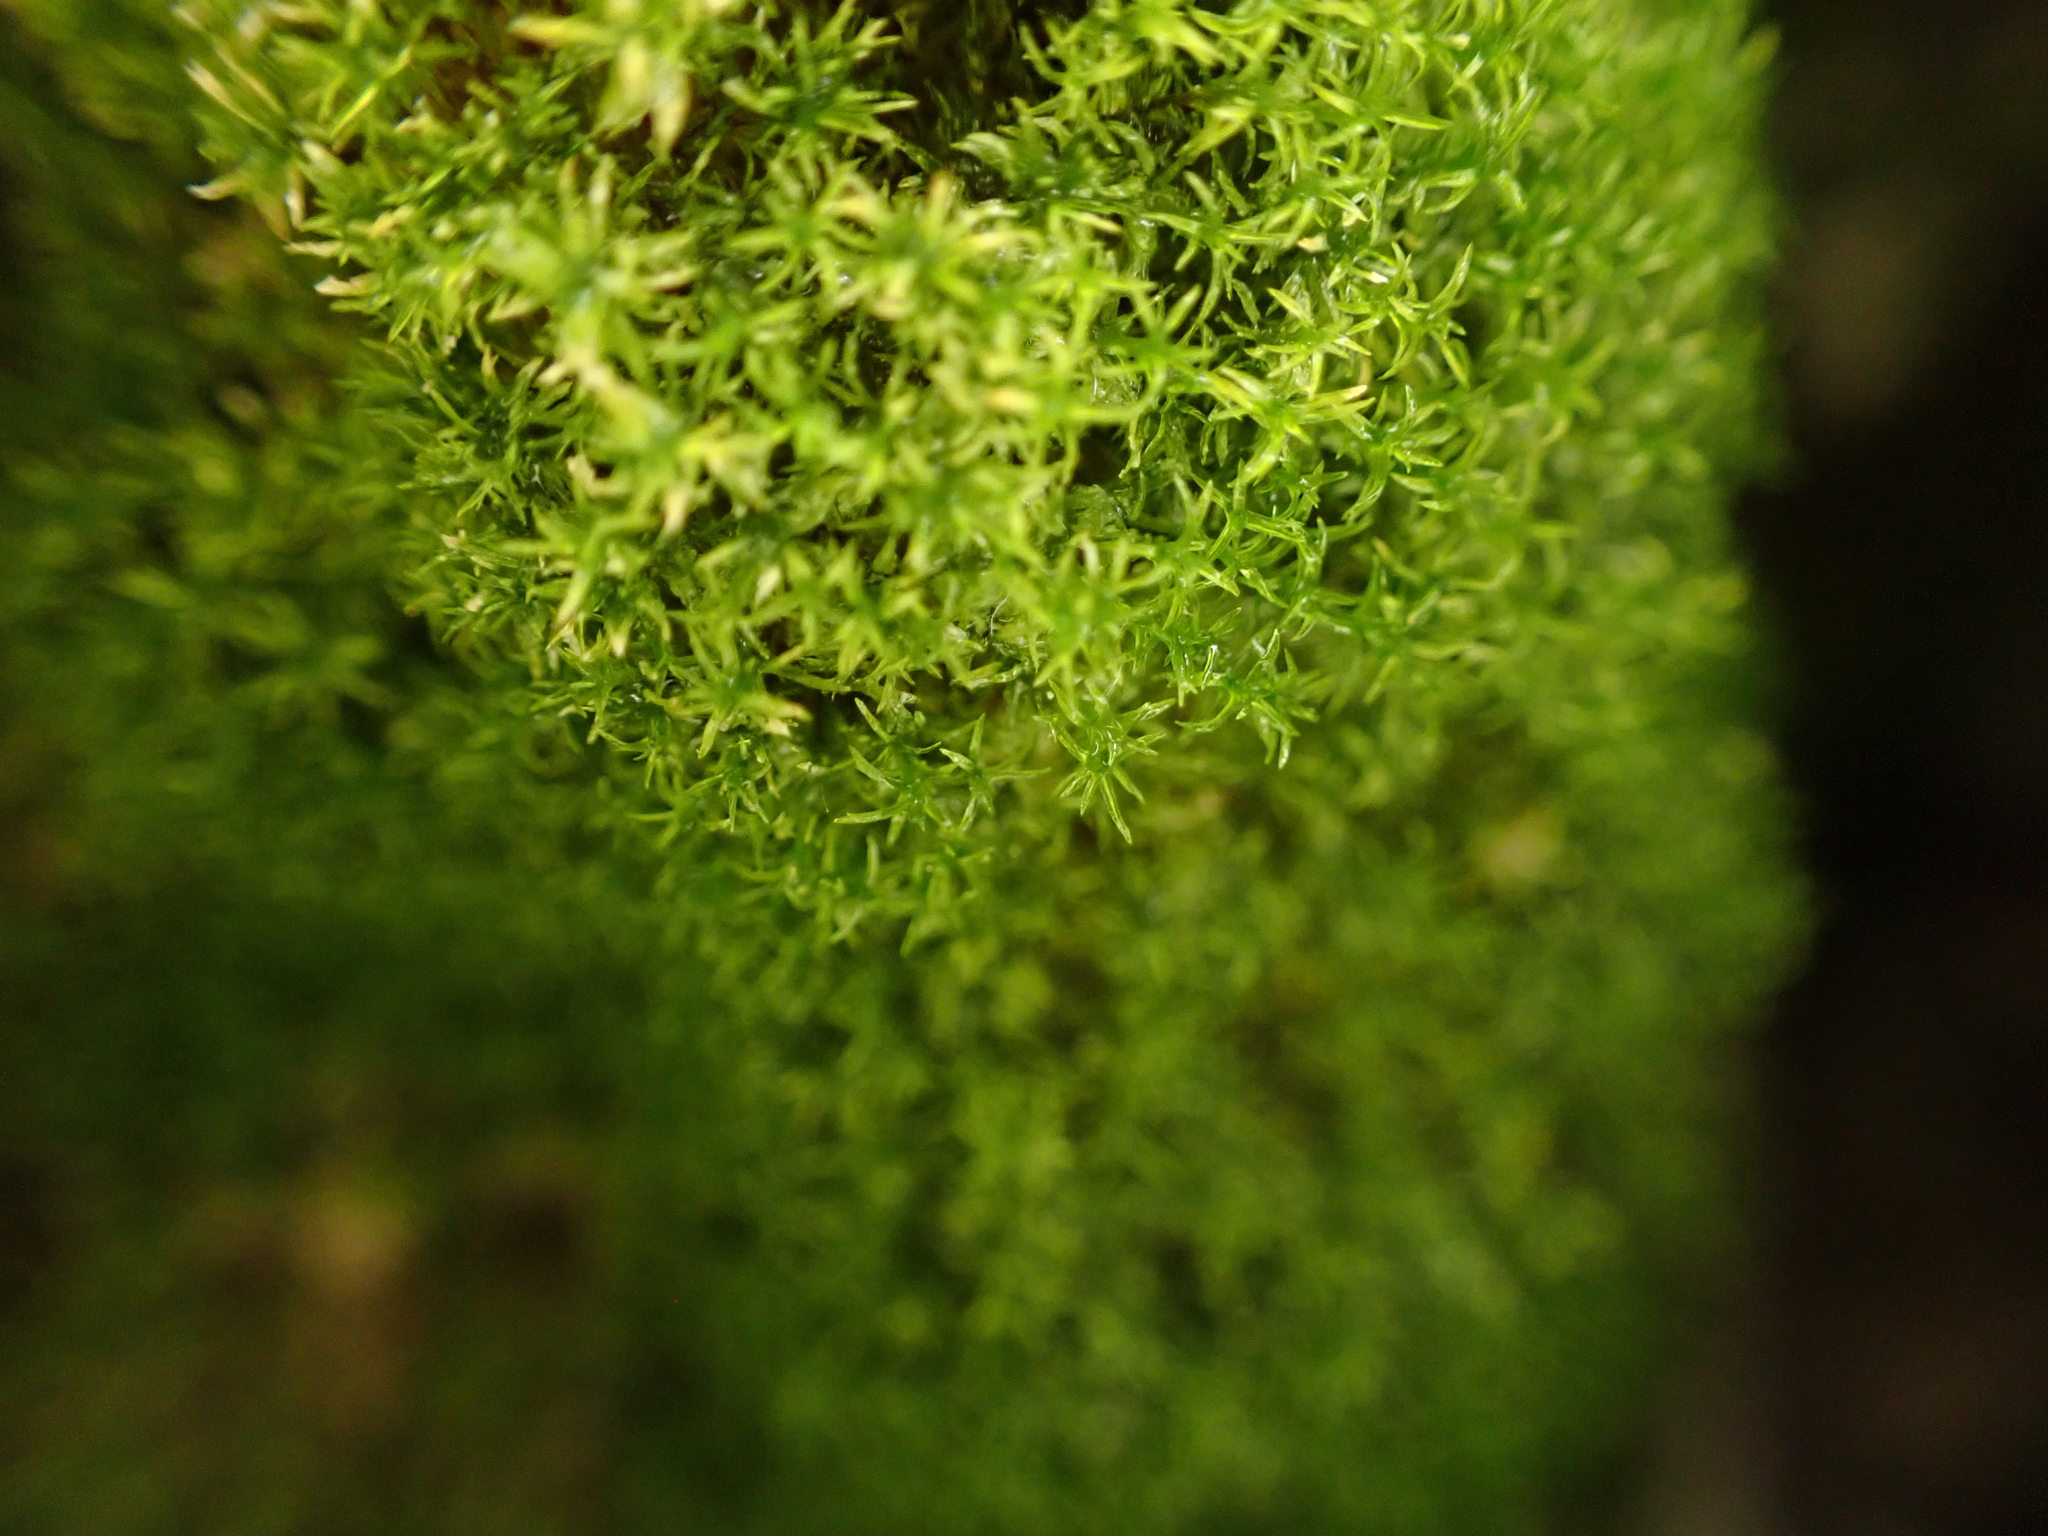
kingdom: Plantae
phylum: Bryophyta
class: Bryopsida
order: Pottiales
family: Pottiaceae
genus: Eucladium
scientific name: Eucladium verticillatum
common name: Whorled tufa-moss
